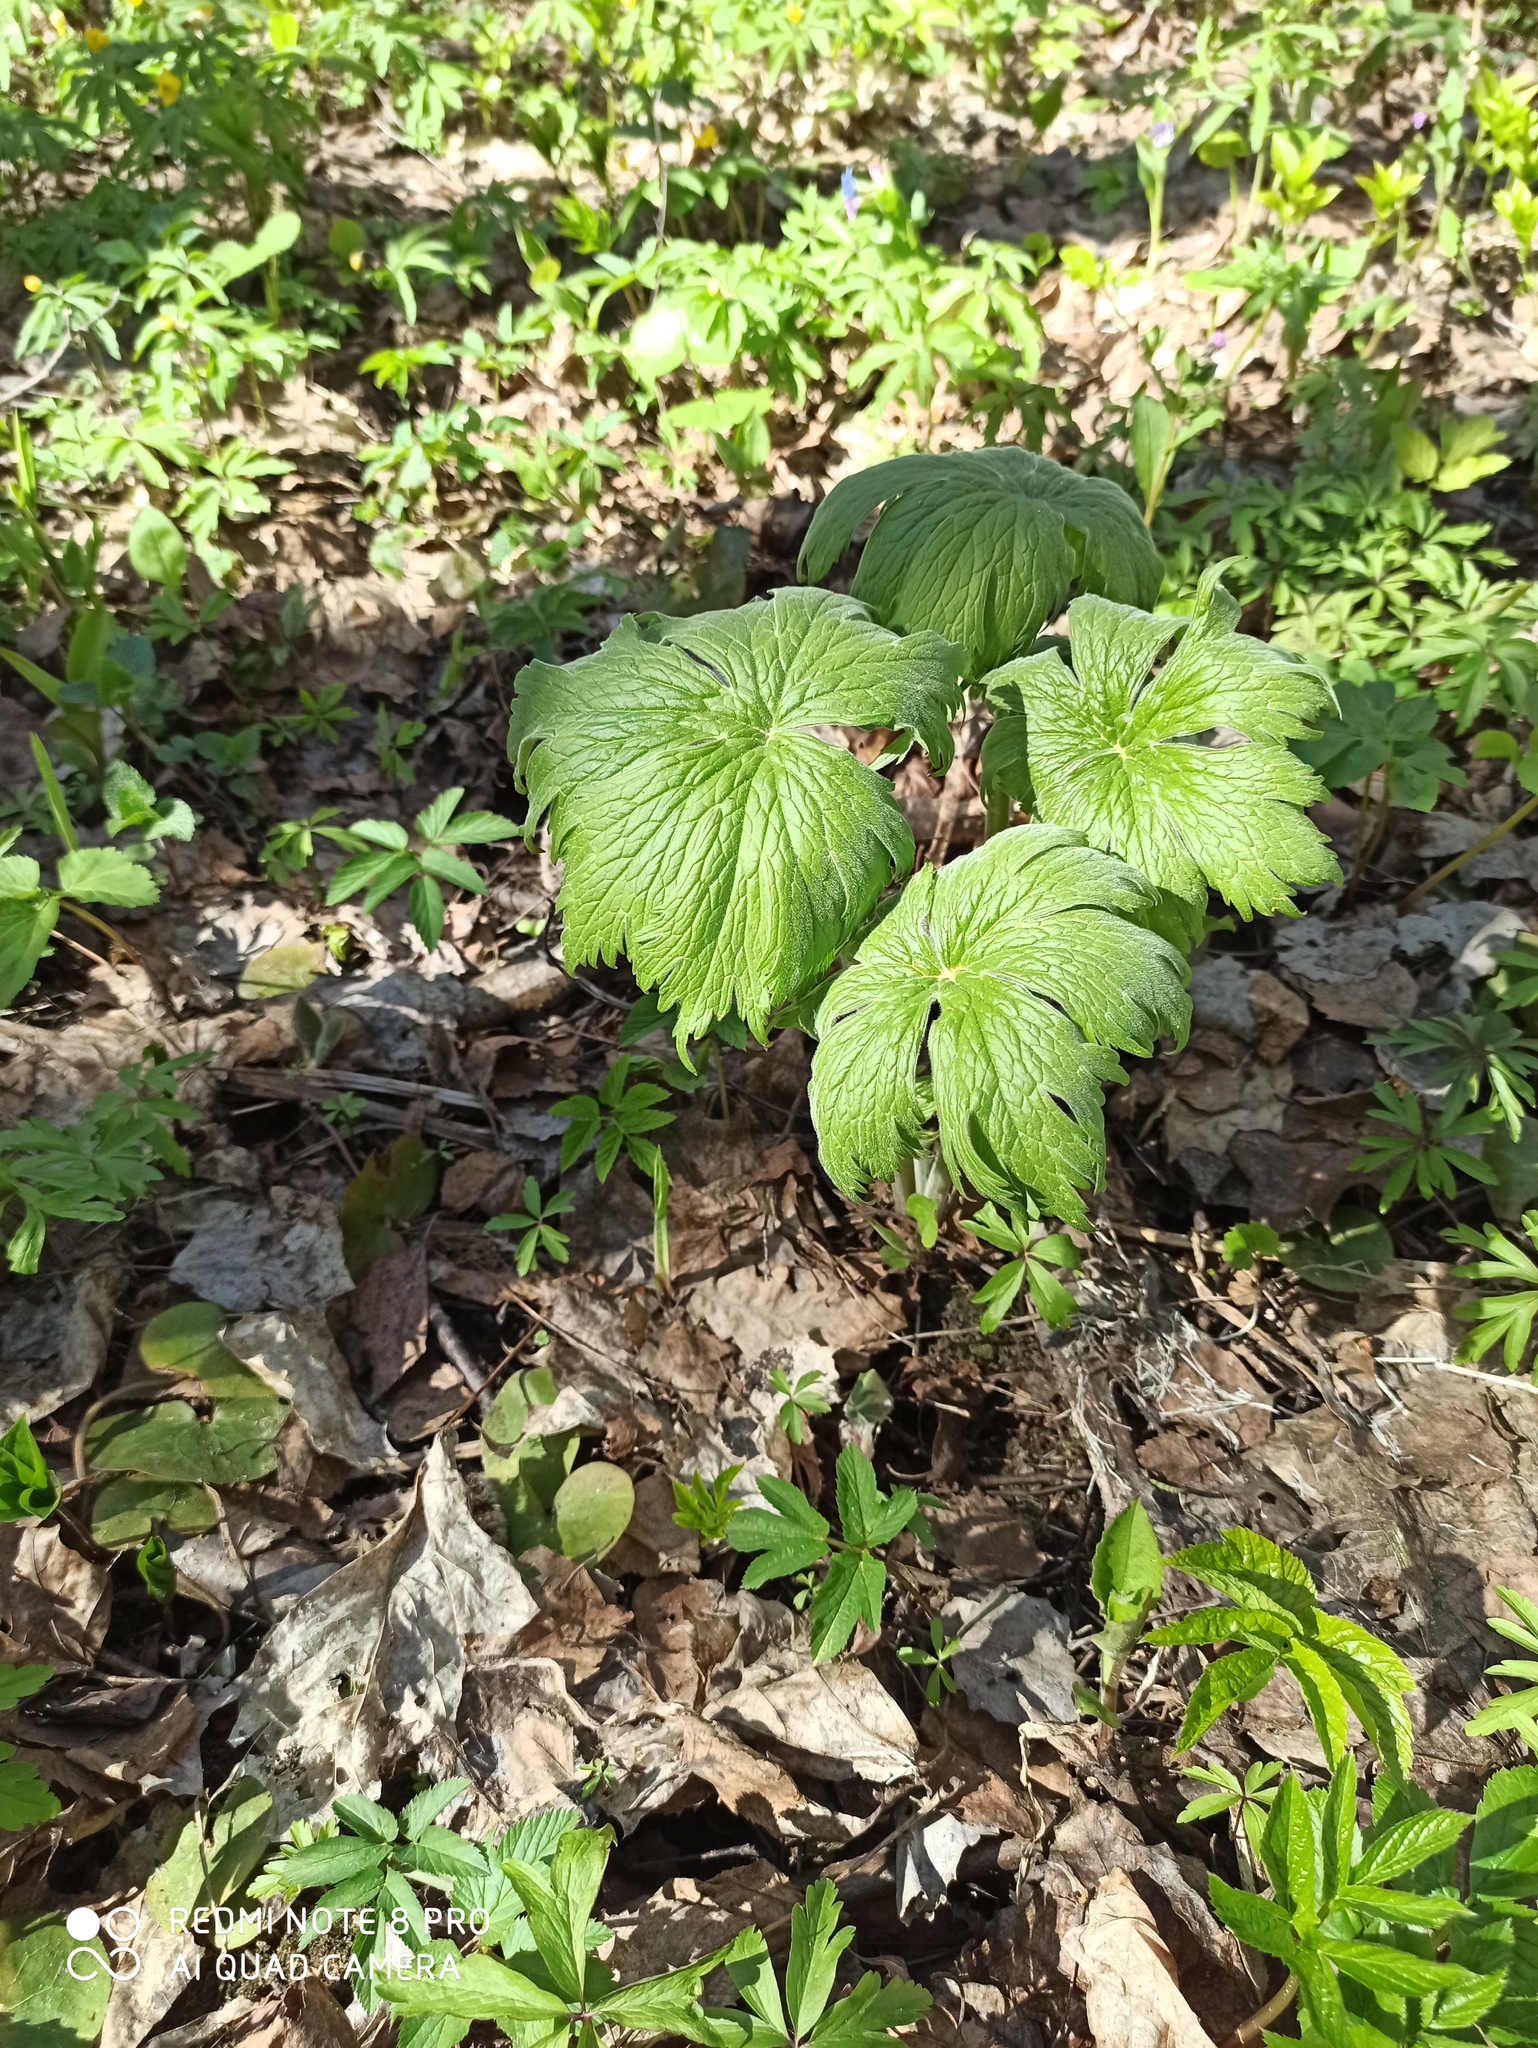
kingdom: Plantae
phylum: Tracheophyta
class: Magnoliopsida
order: Ranunculales
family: Ranunculaceae
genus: Aconitum
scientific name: Aconitum septentrionale
